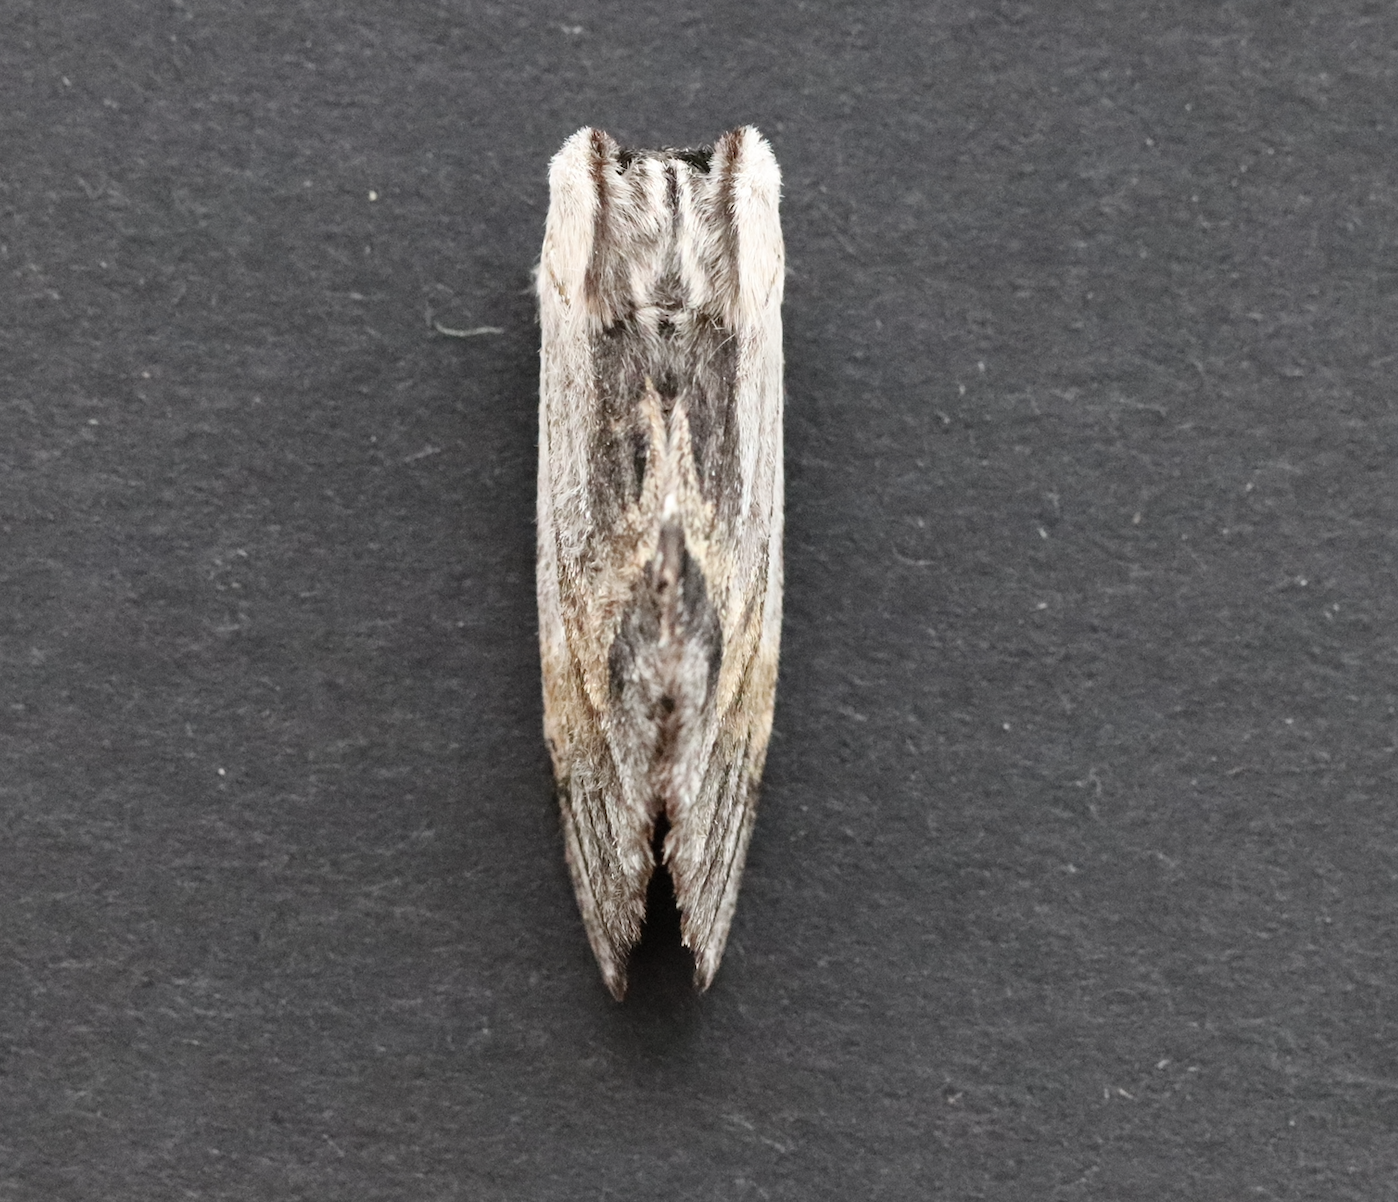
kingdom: Animalia
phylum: Arthropoda
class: Insecta
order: Lepidoptera
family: Notodontidae
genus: Harpyia
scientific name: Harpyia milhauseri
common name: Tawny prominent
